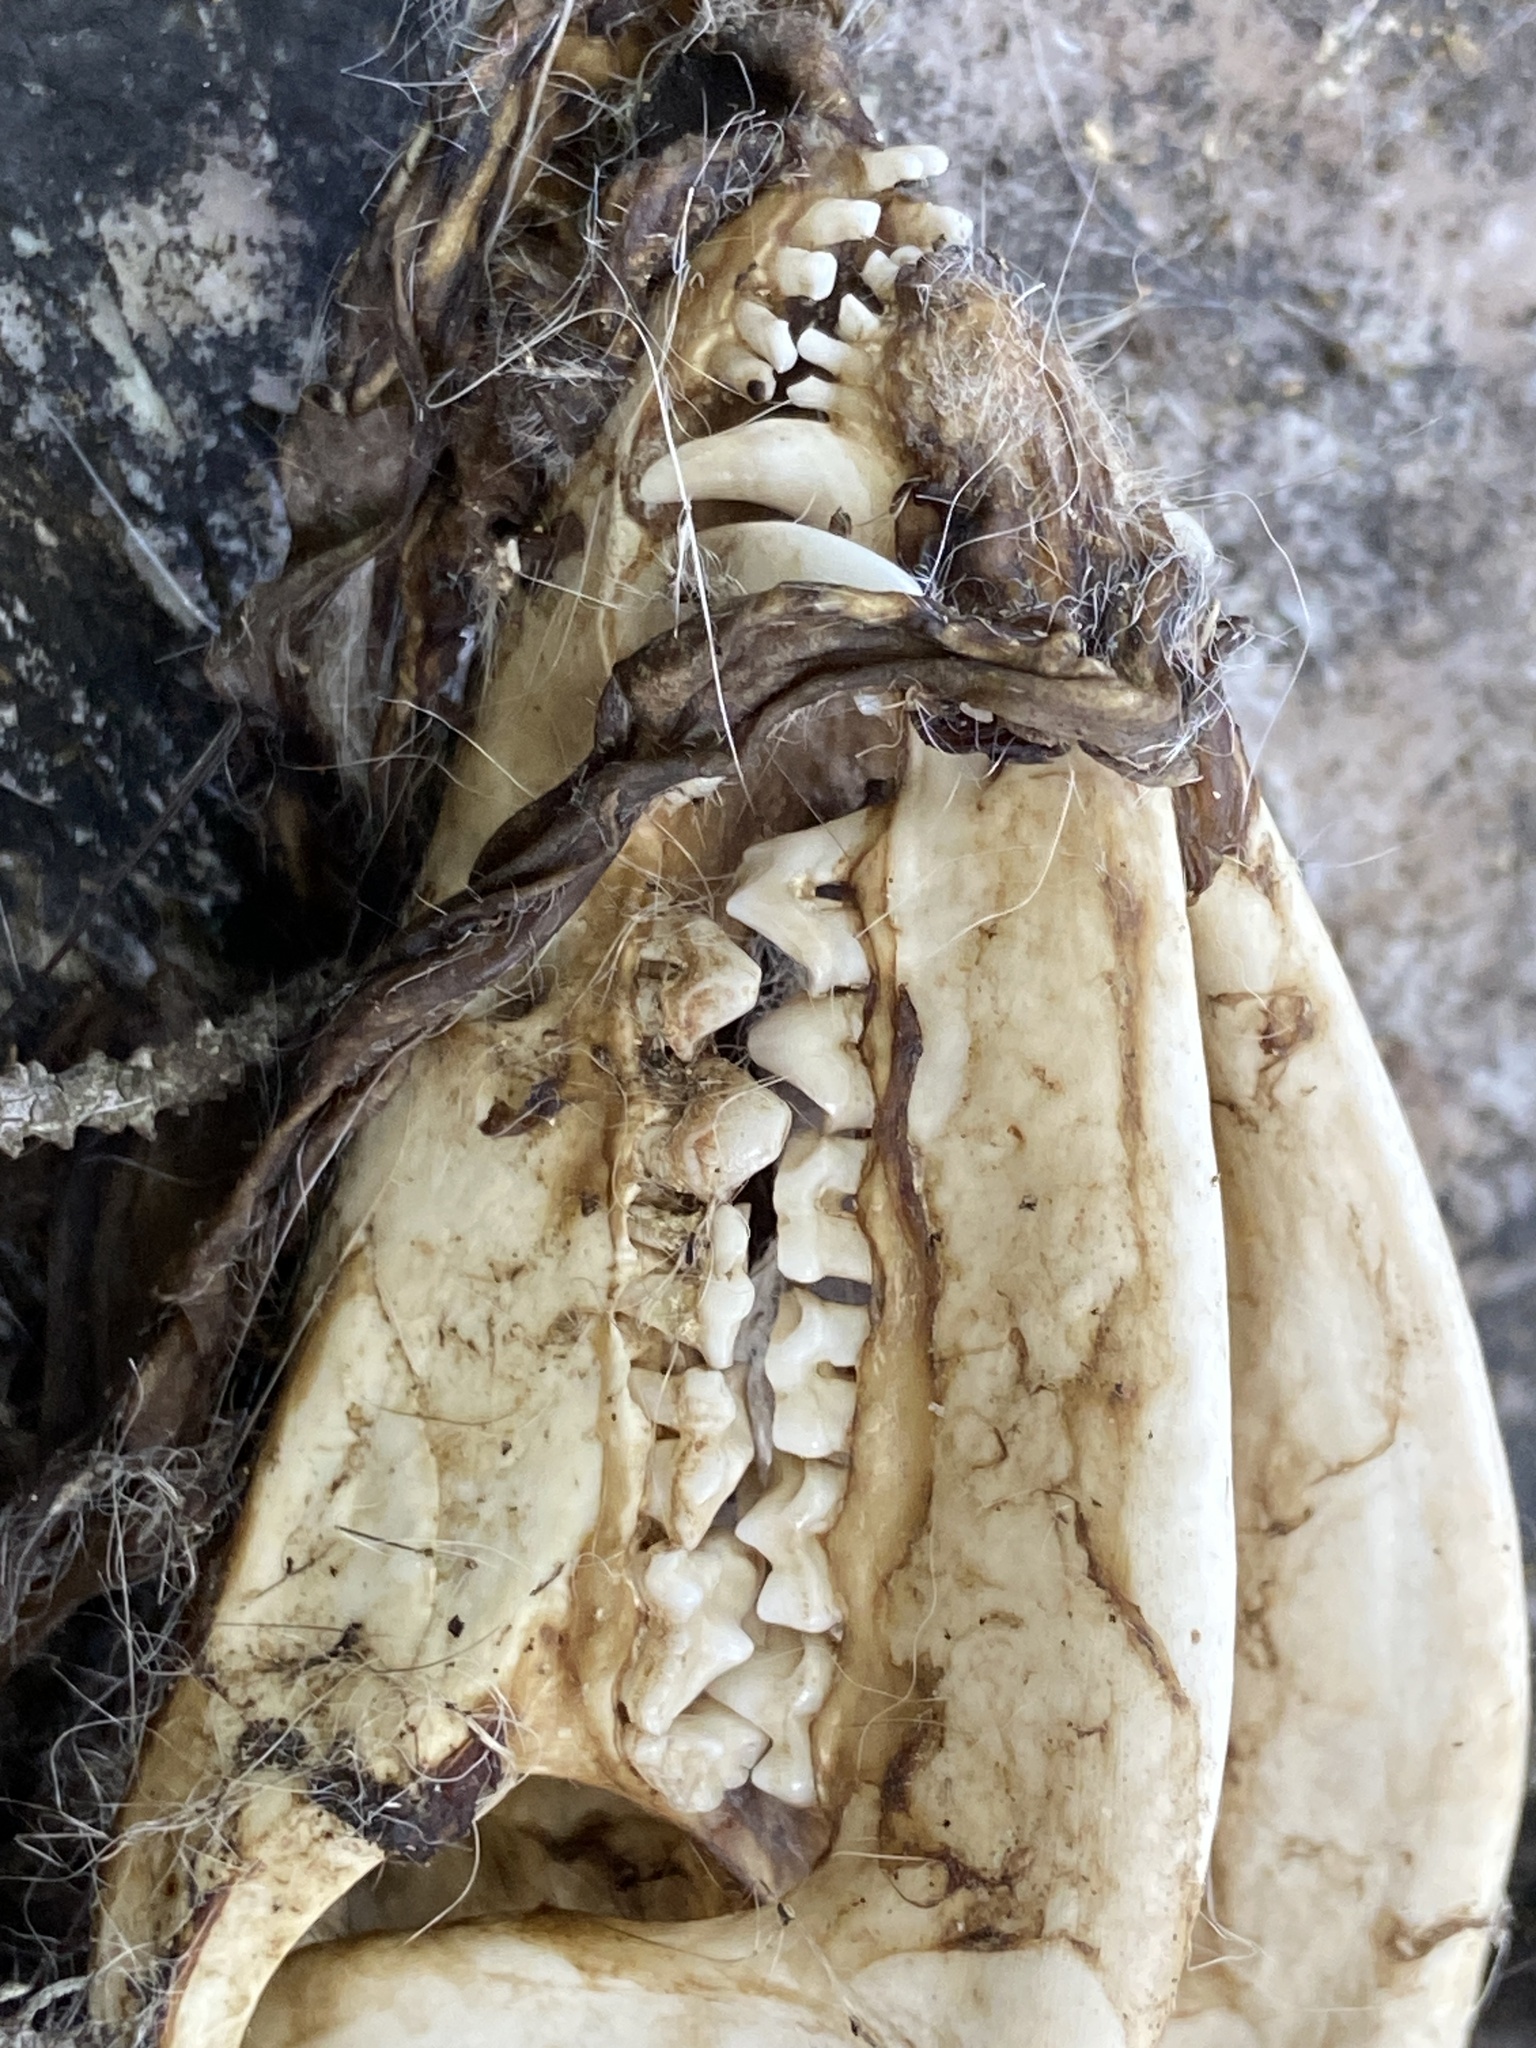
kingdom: Animalia
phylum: Chordata
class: Mammalia
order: Didelphimorphia
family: Didelphidae
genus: Didelphis
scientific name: Didelphis virginiana
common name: Virginia opossum
